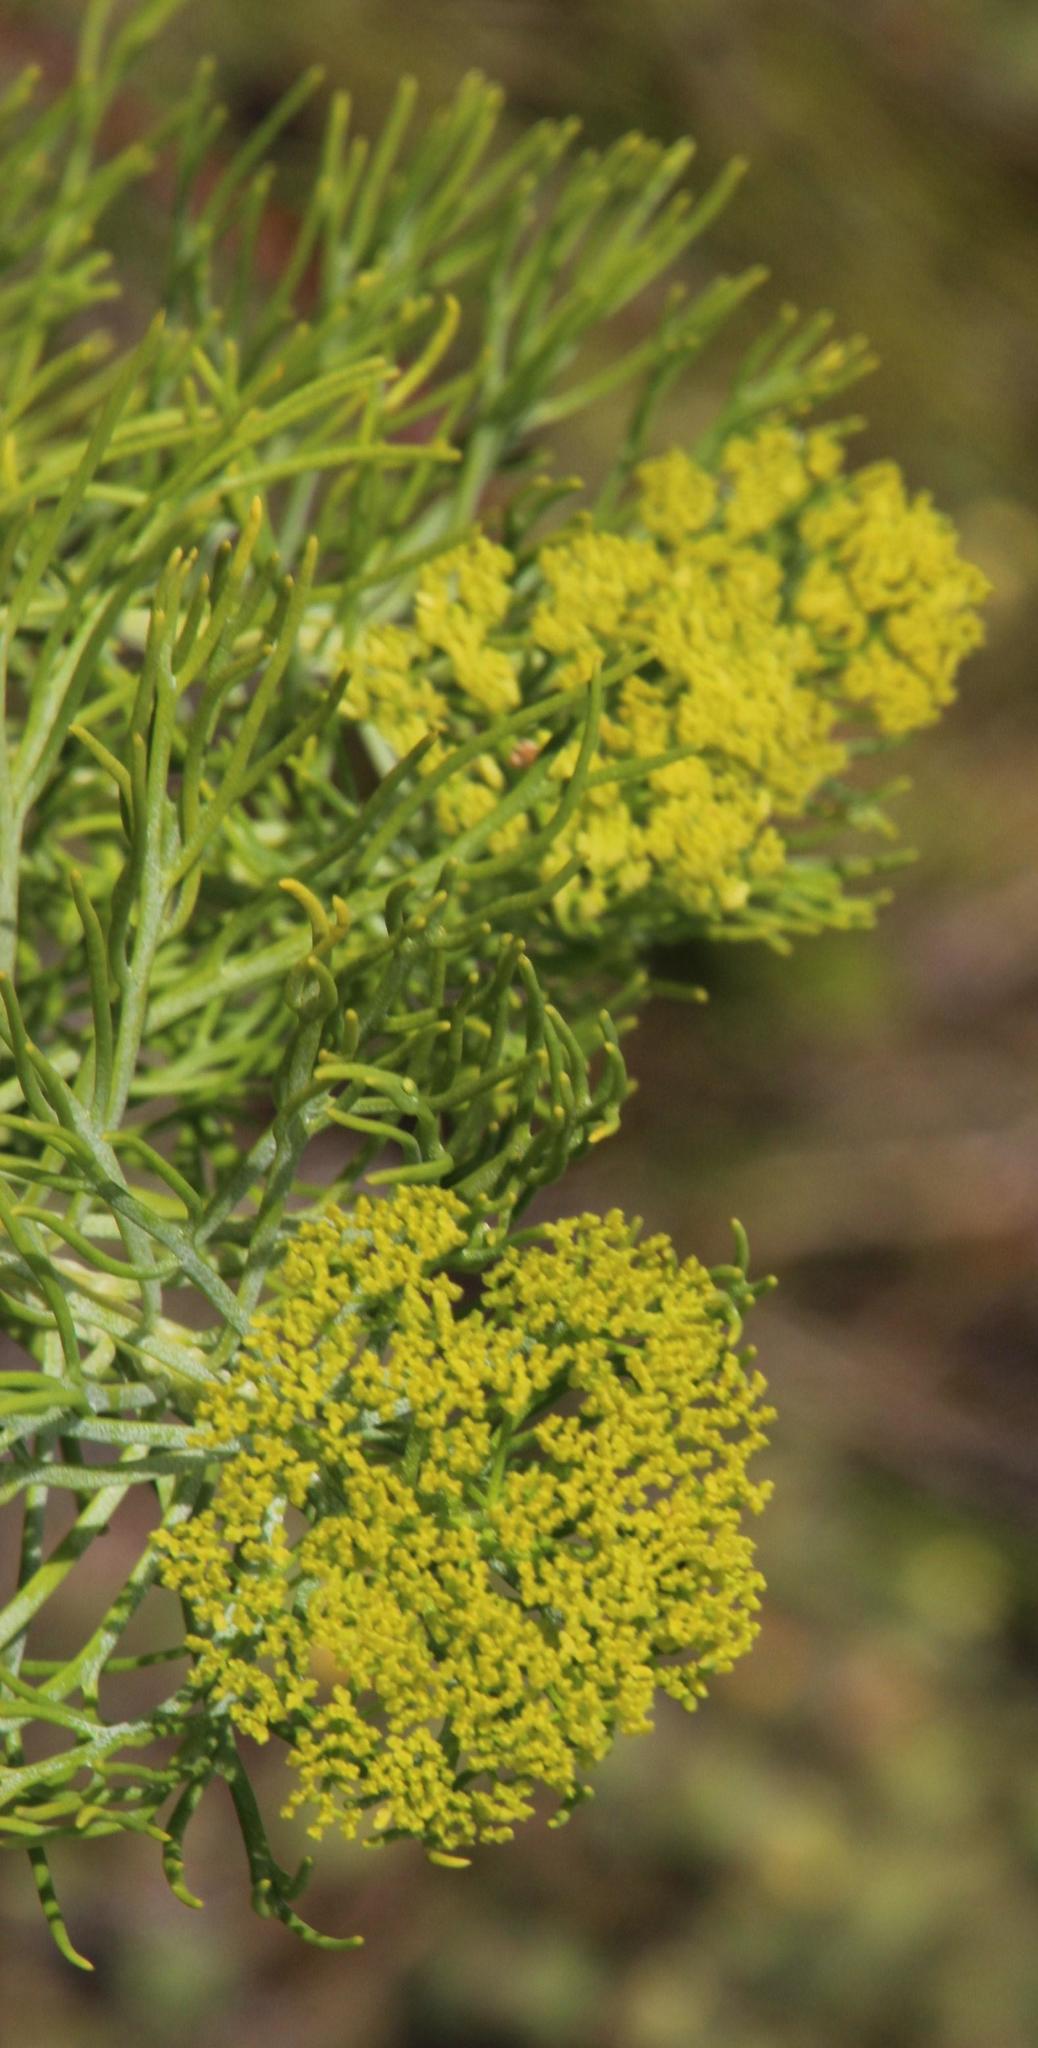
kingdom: Plantae
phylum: Tracheophyta
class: Magnoliopsida
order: Asterales
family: Asteraceae
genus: Hymenolepis
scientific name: Hymenolepis crithmifolia
